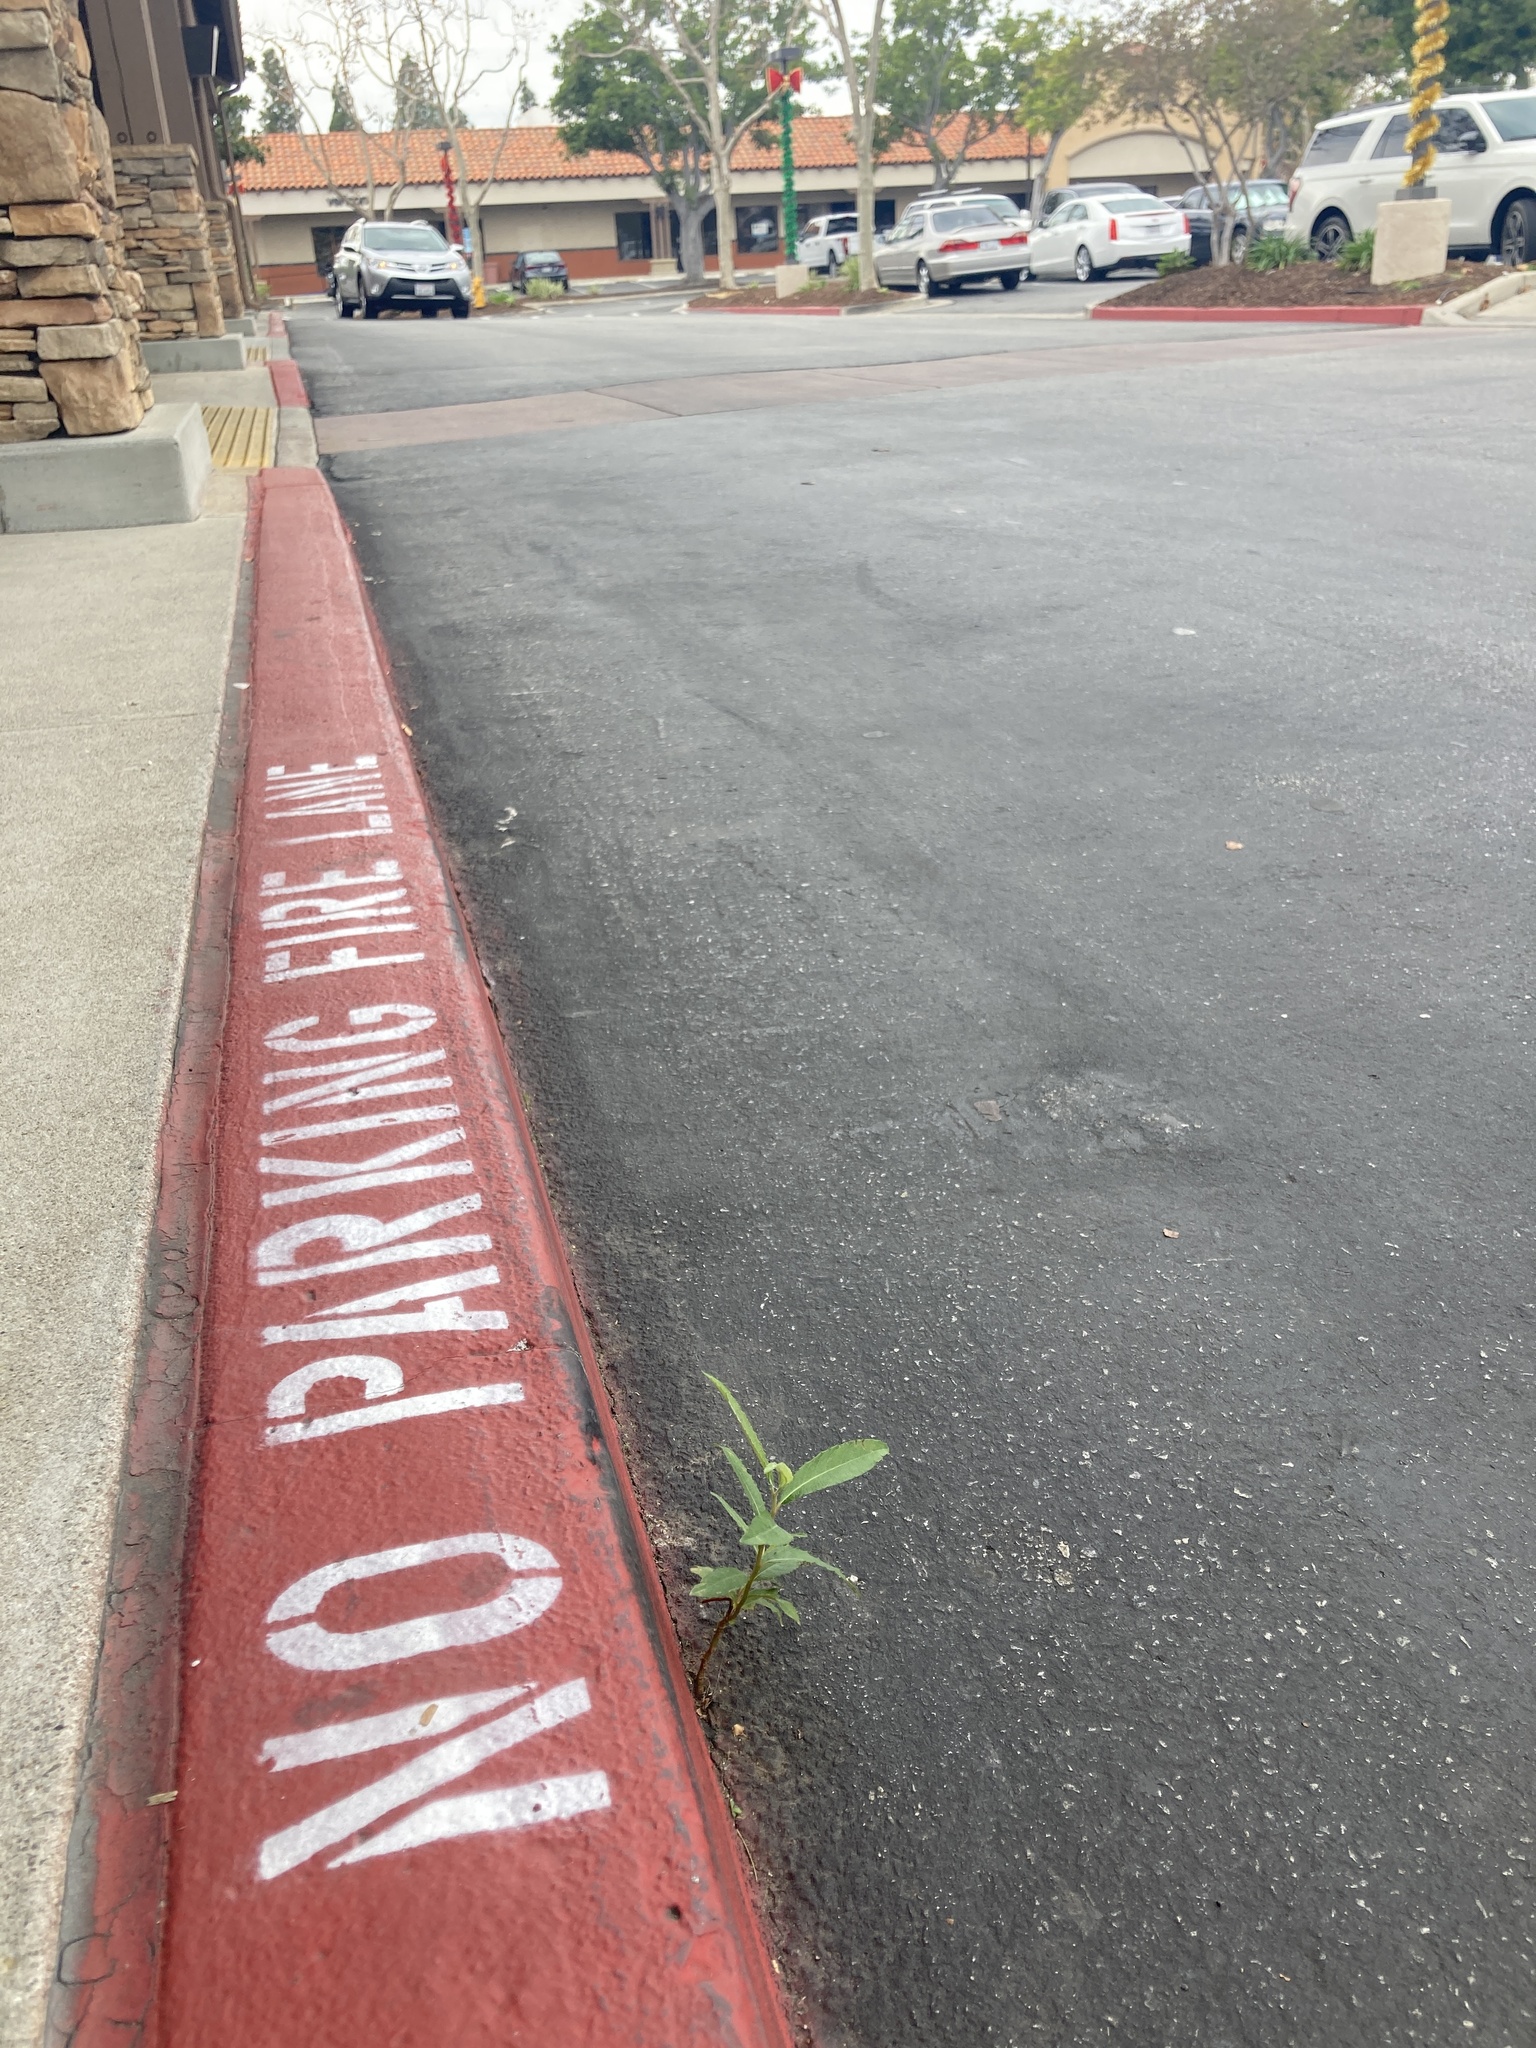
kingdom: Plantae
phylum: Tracheophyta
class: Magnoliopsida
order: Malpighiales
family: Salicaceae
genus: Salix
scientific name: Salix lasiolepis
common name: Arroyo willow
